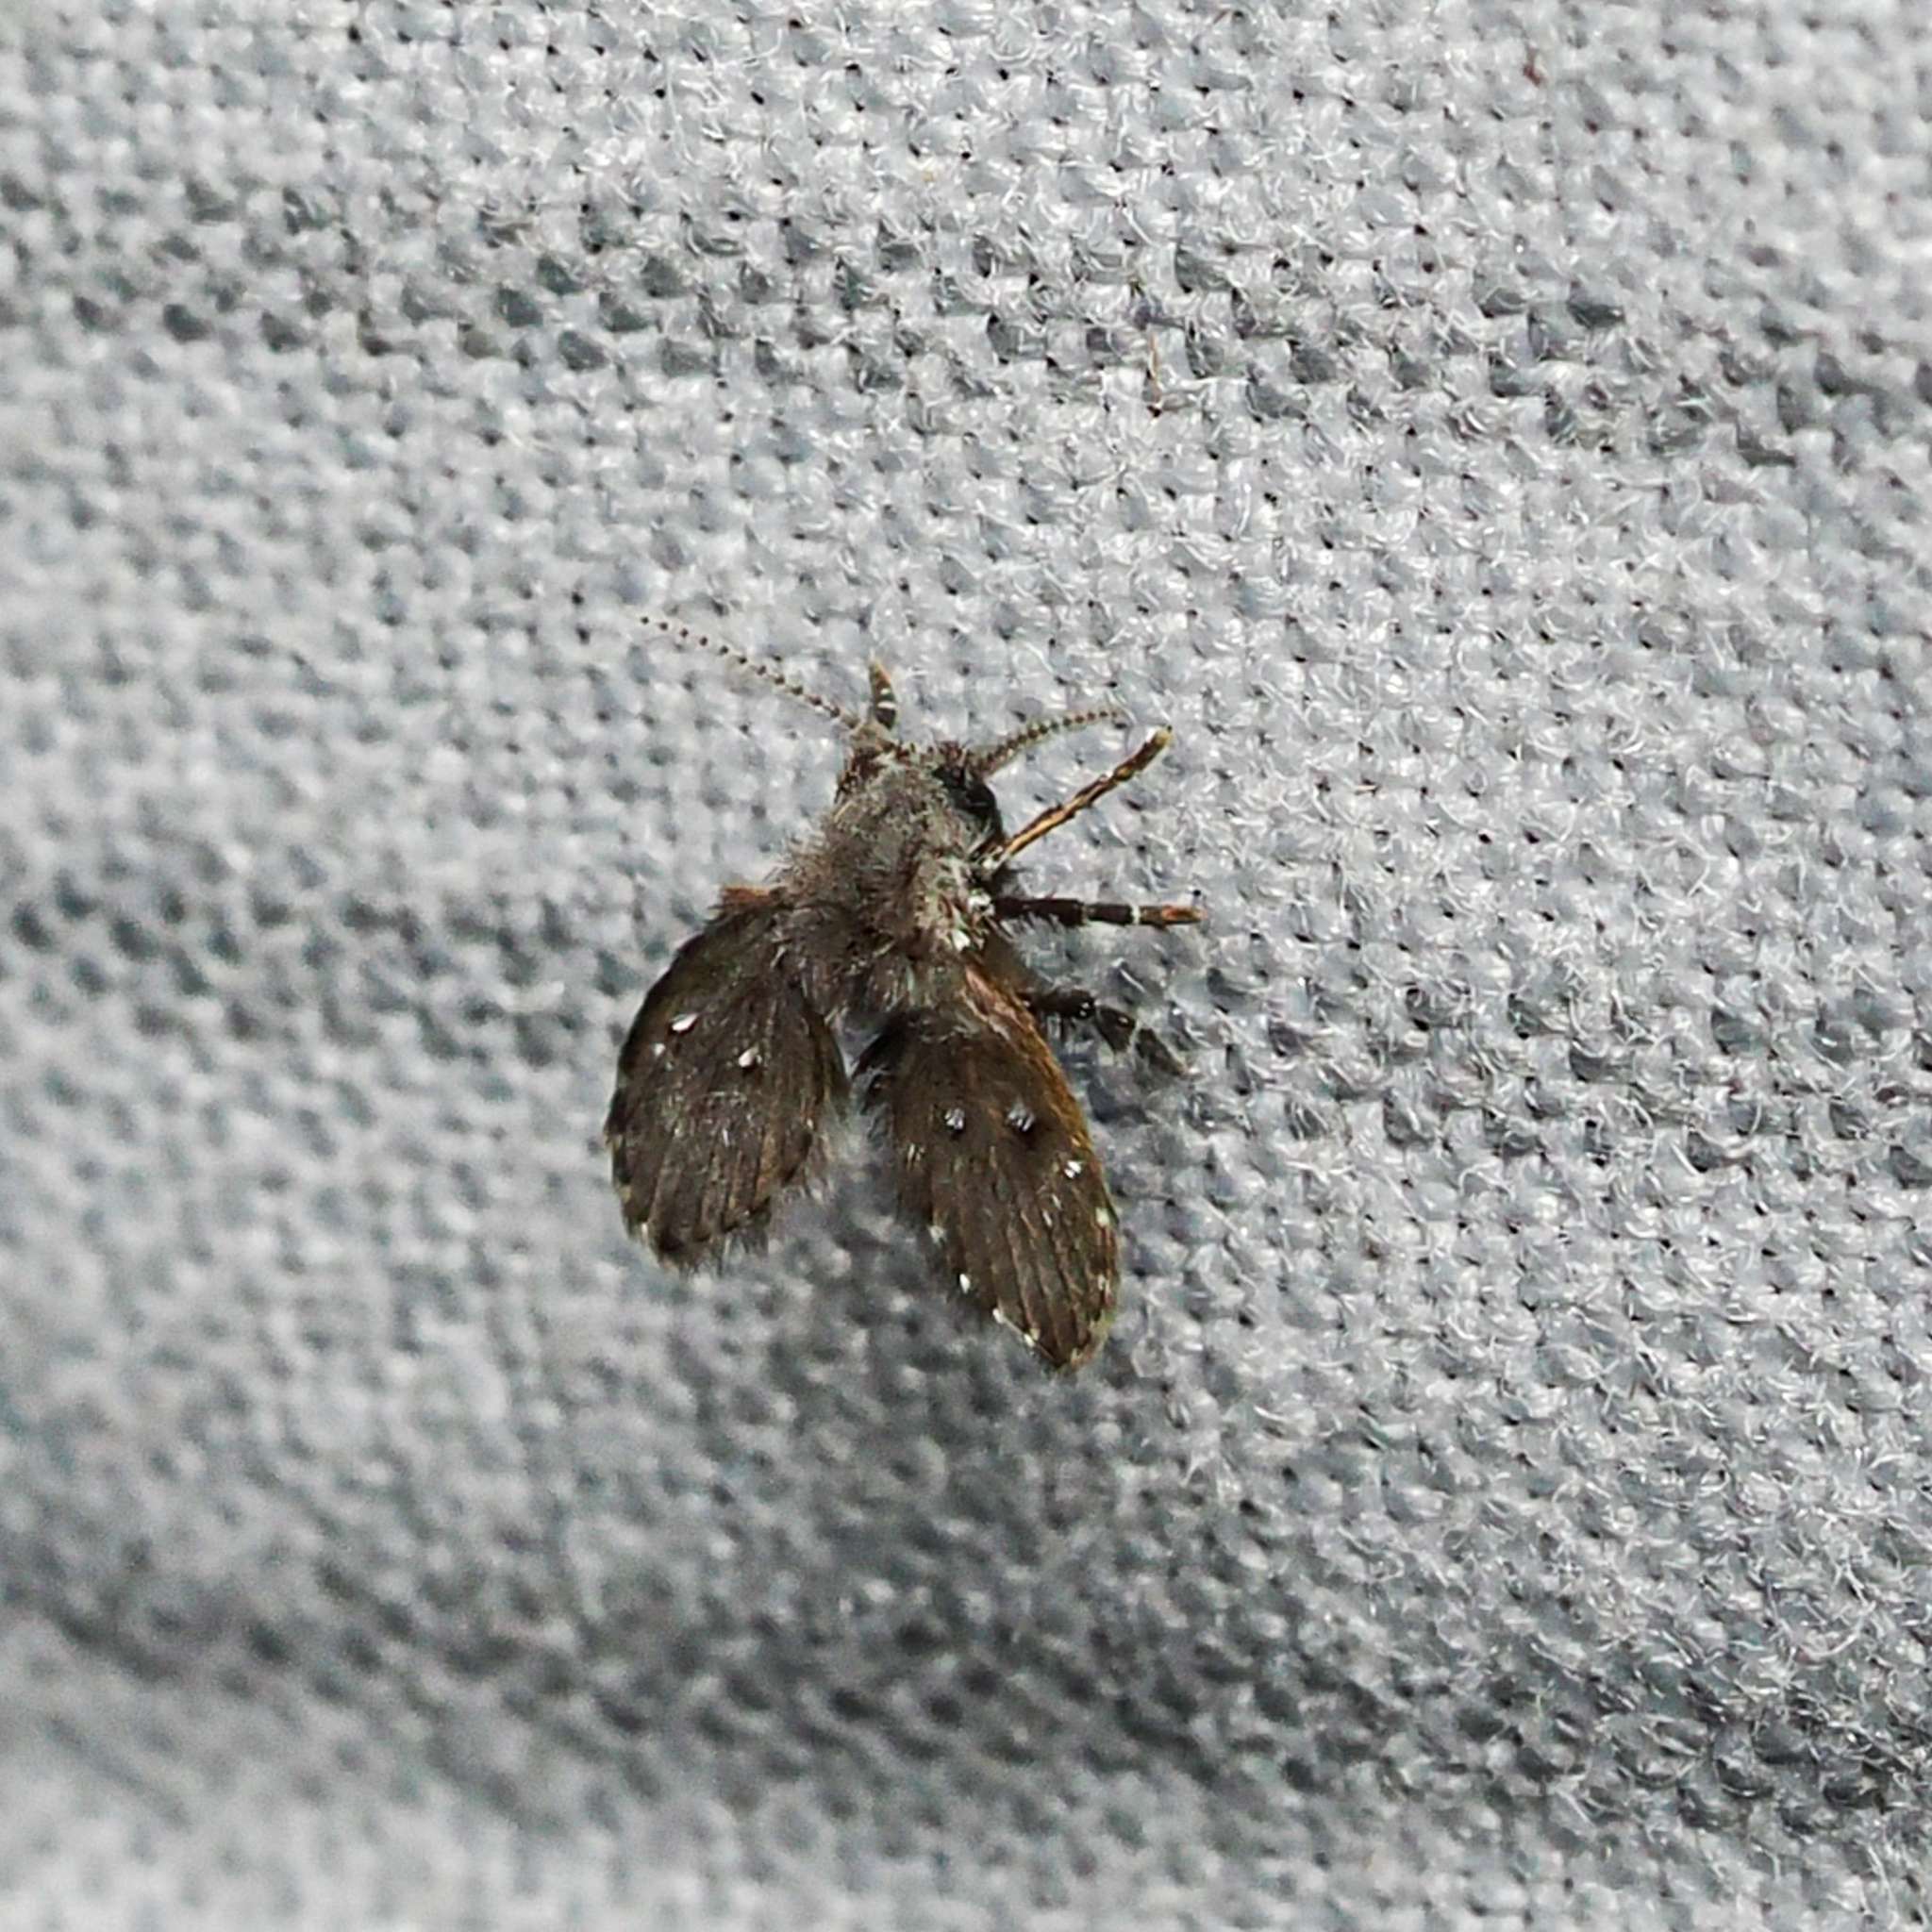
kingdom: Animalia
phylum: Arthropoda
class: Insecta
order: Diptera
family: Psychodidae
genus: Clogmia
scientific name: Clogmia albipunctatus
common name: White-spotted moth fly
